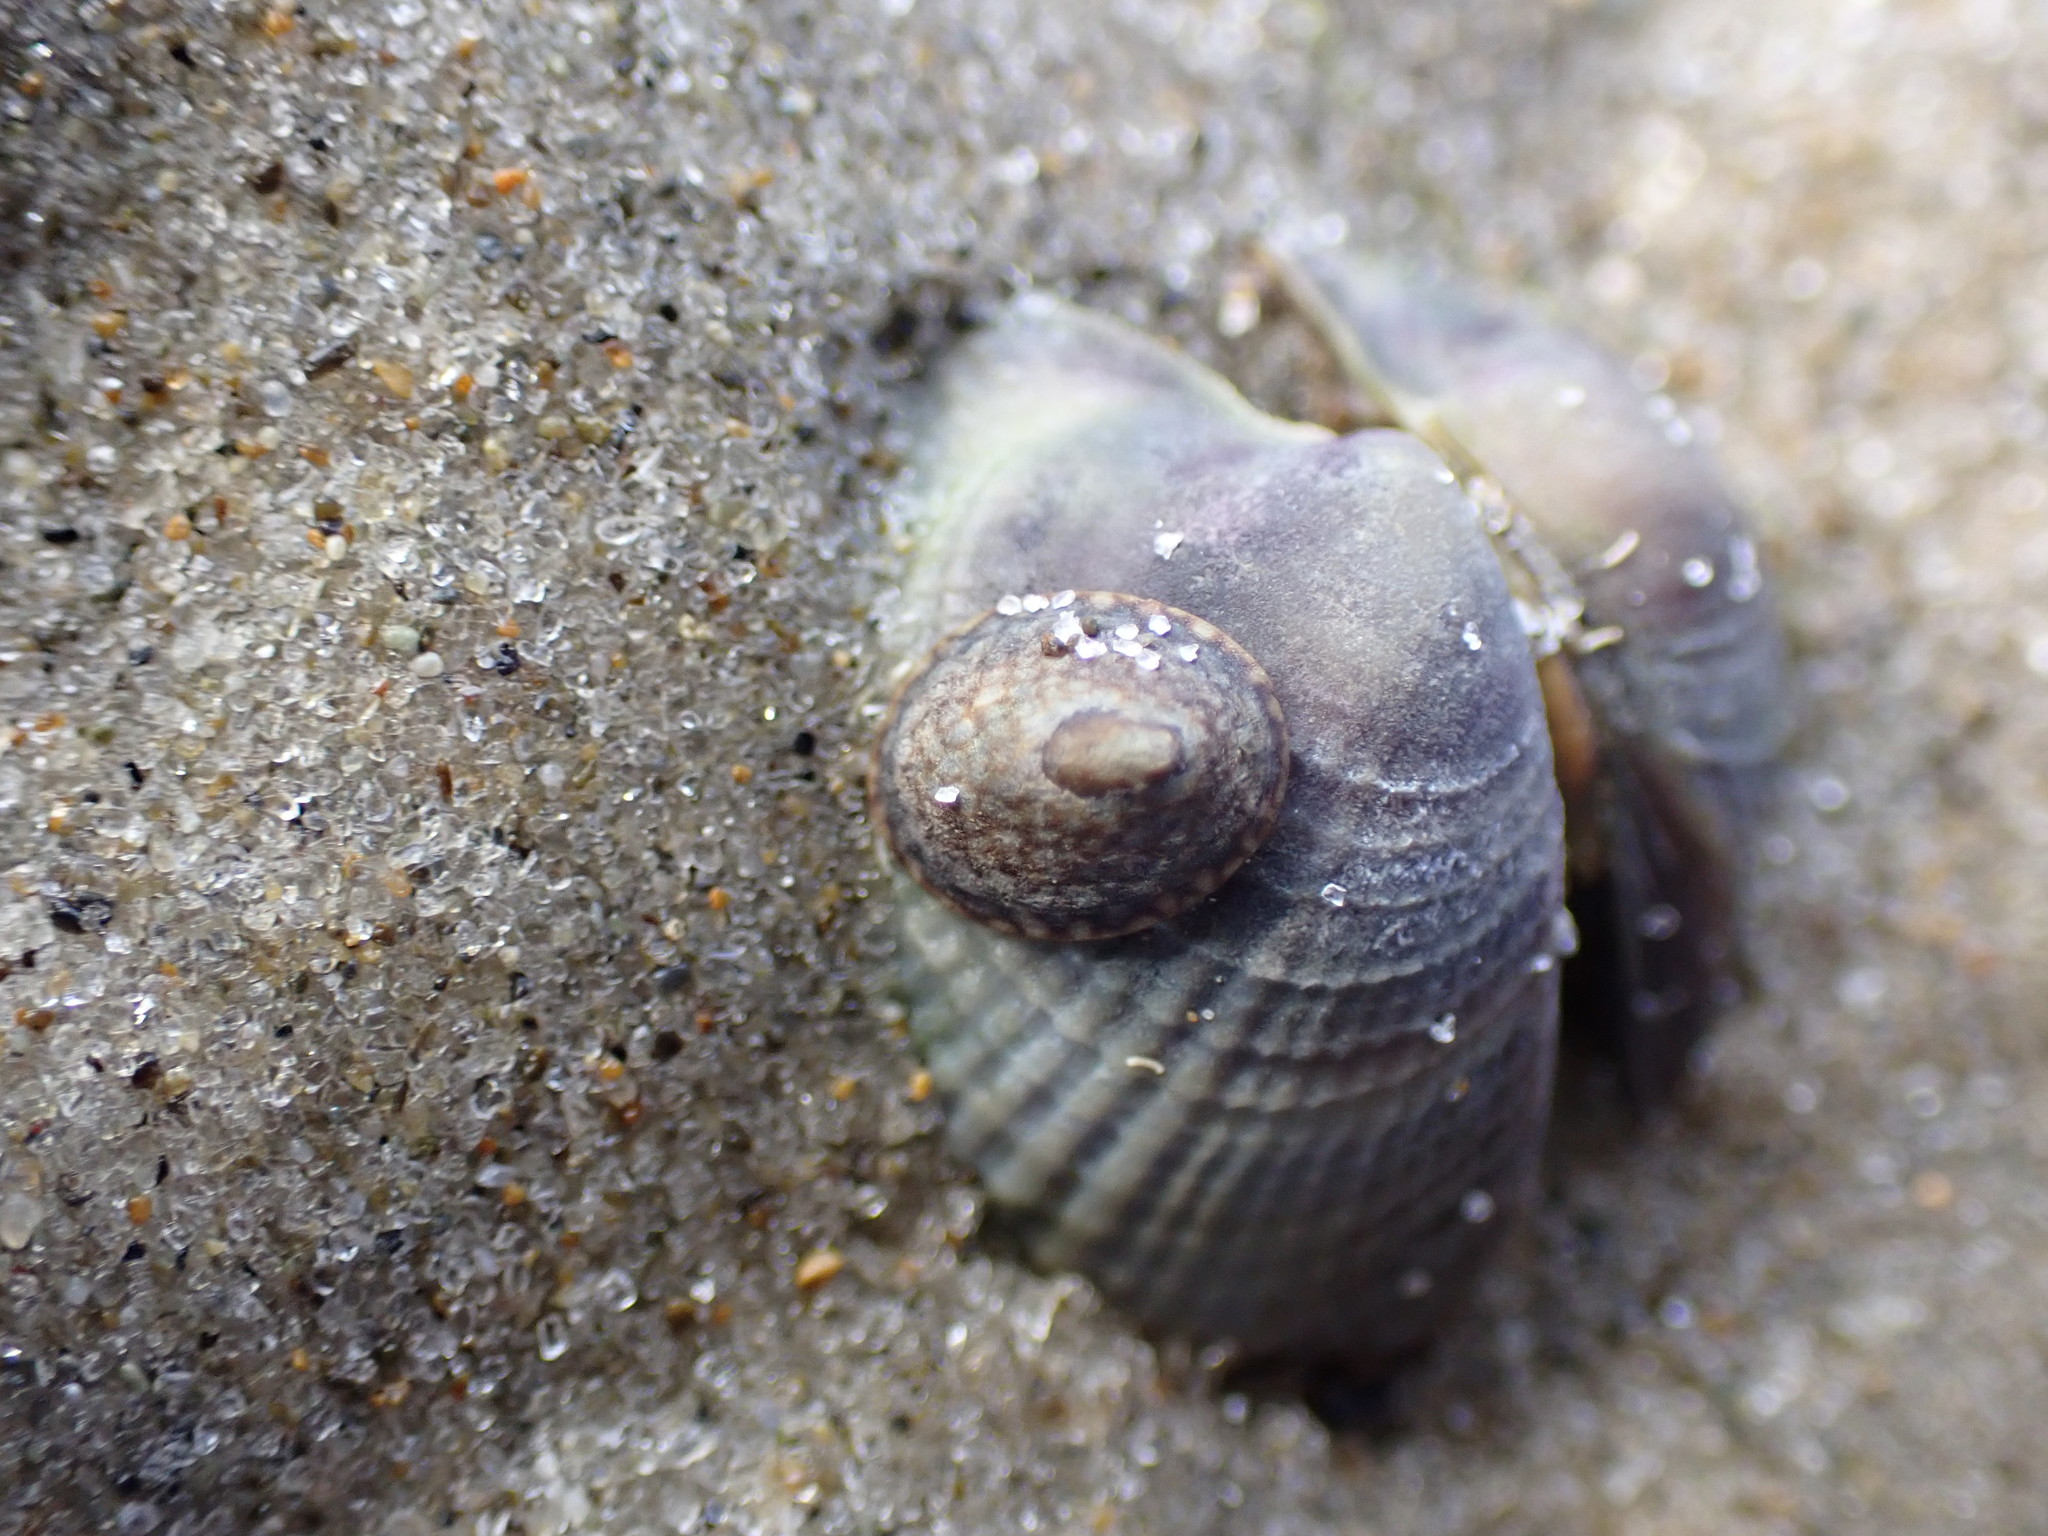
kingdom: Animalia
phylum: Mollusca
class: Gastropoda
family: Lottiidae
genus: Notoacmea
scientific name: Notoacmea scapha
